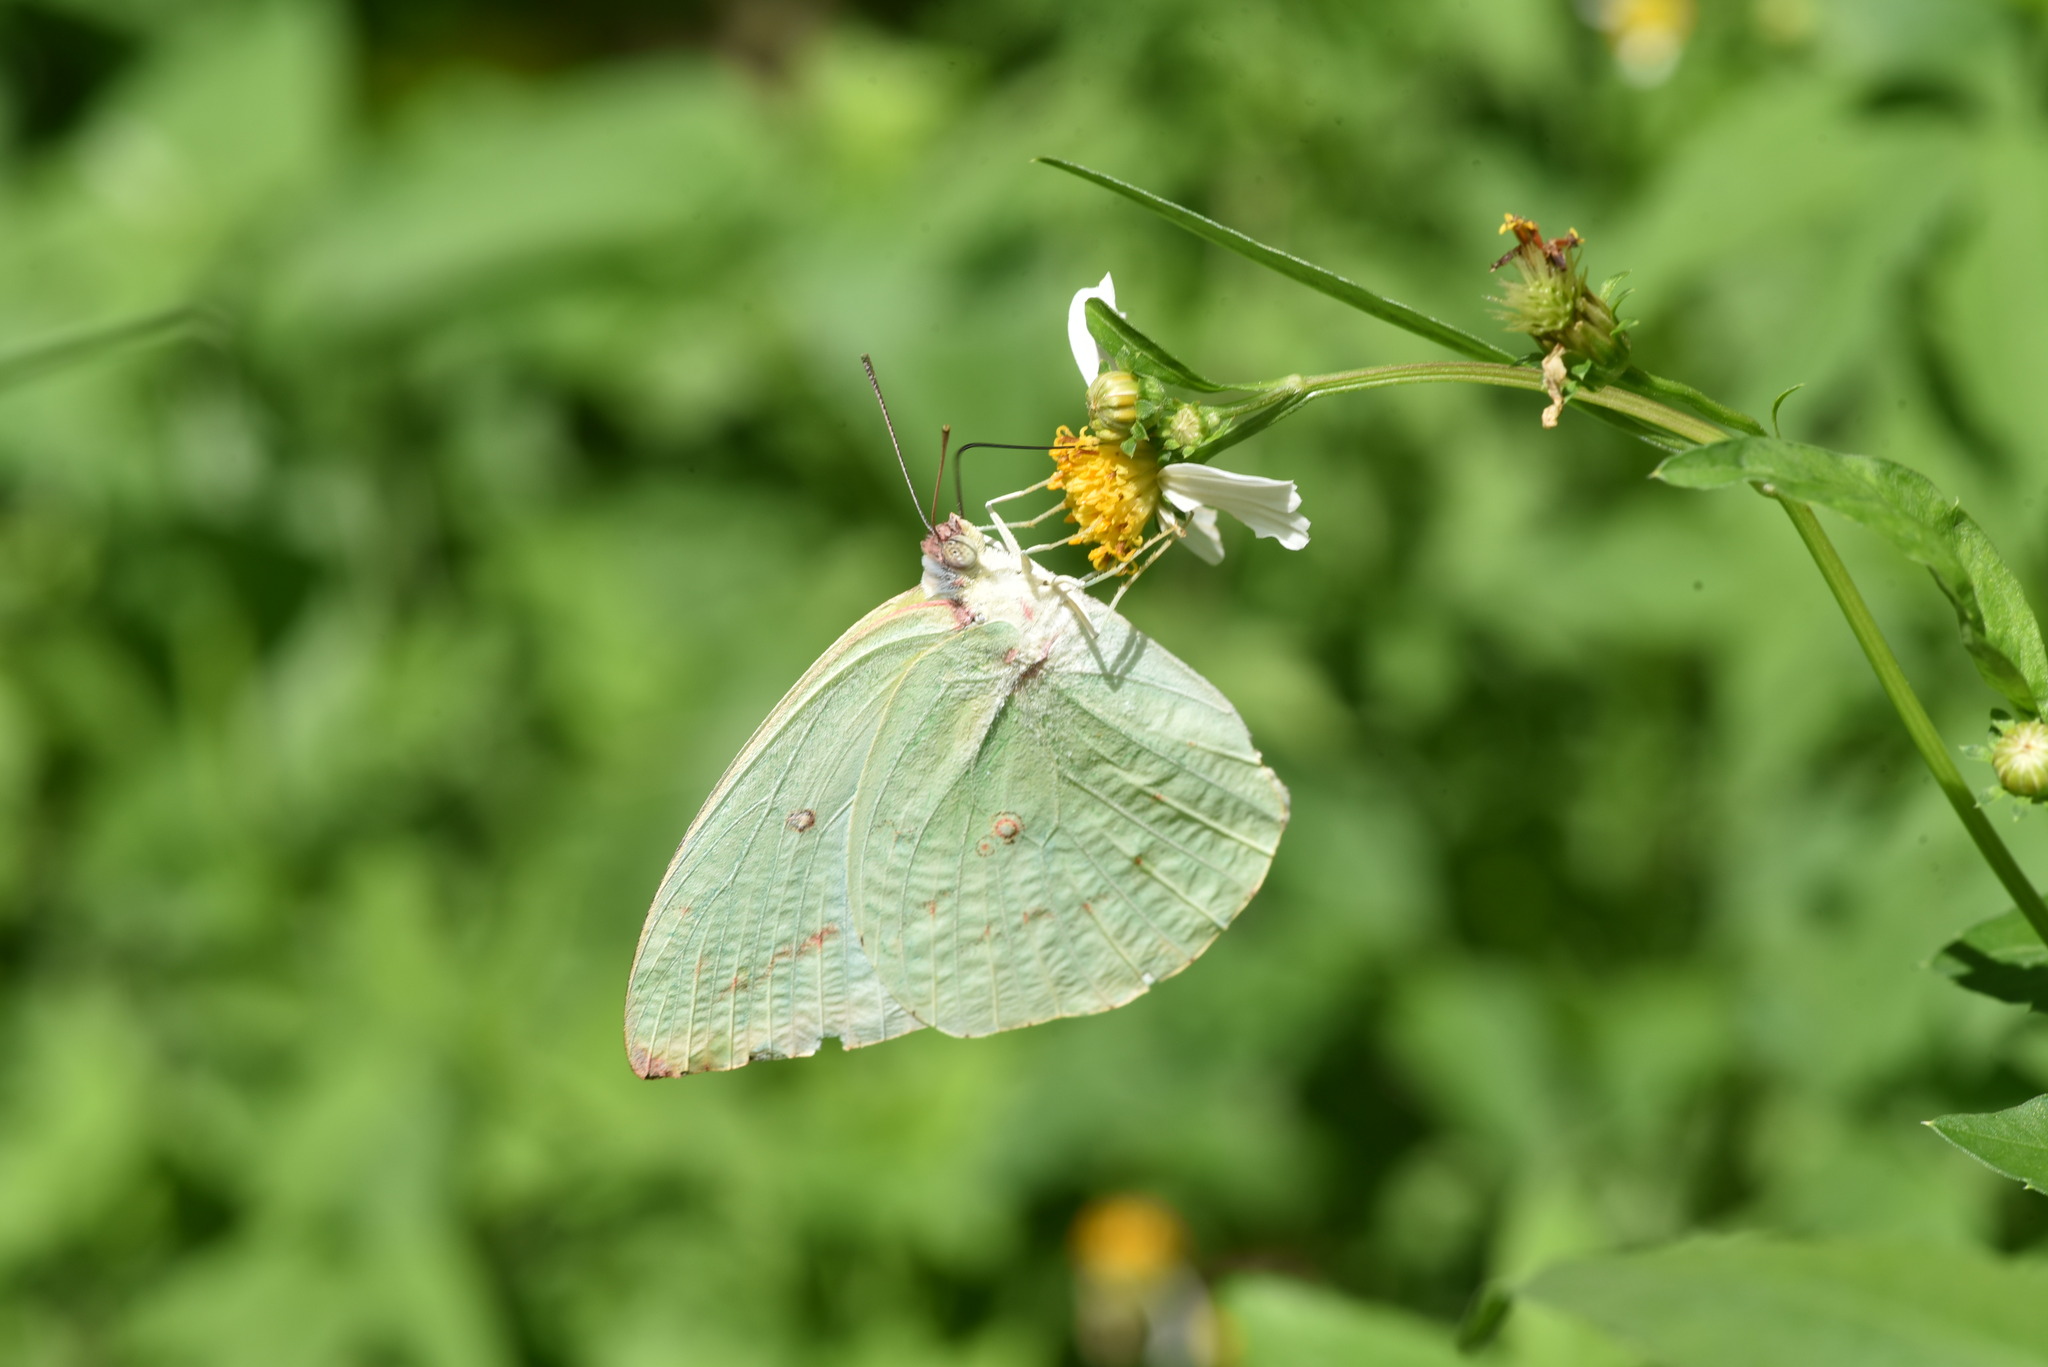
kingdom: Animalia
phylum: Arthropoda
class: Insecta
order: Lepidoptera
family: Pieridae
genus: Catopsilia
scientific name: Catopsilia pomona
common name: Common emigrant
